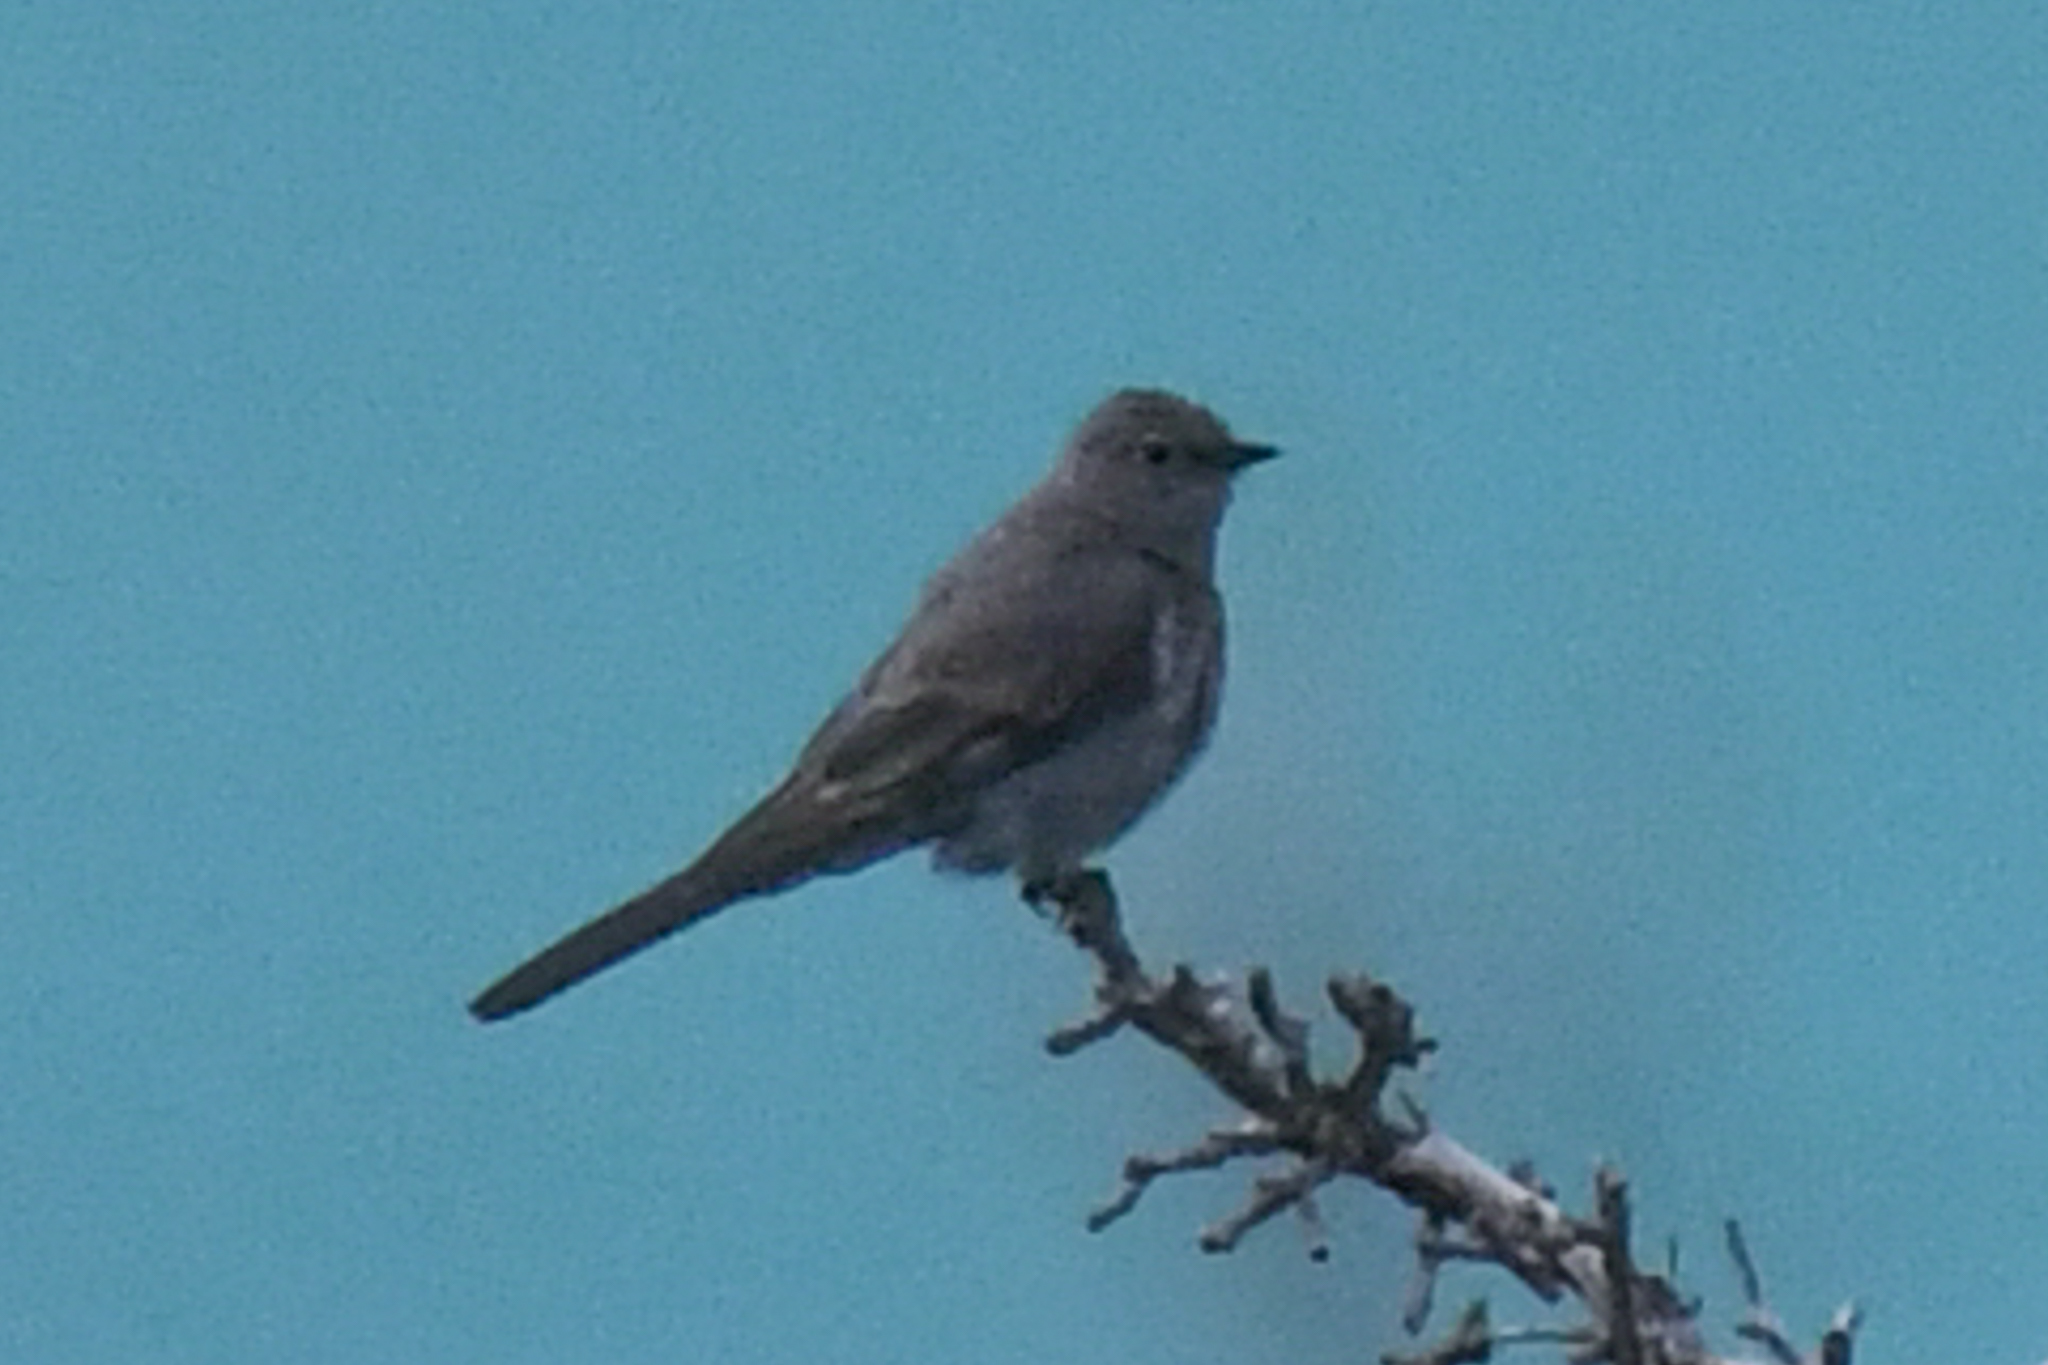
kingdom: Animalia
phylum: Chordata
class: Aves
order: Passeriformes
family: Turdidae
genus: Myadestes
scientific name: Myadestes townsendi
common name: Townsend's solitaire
